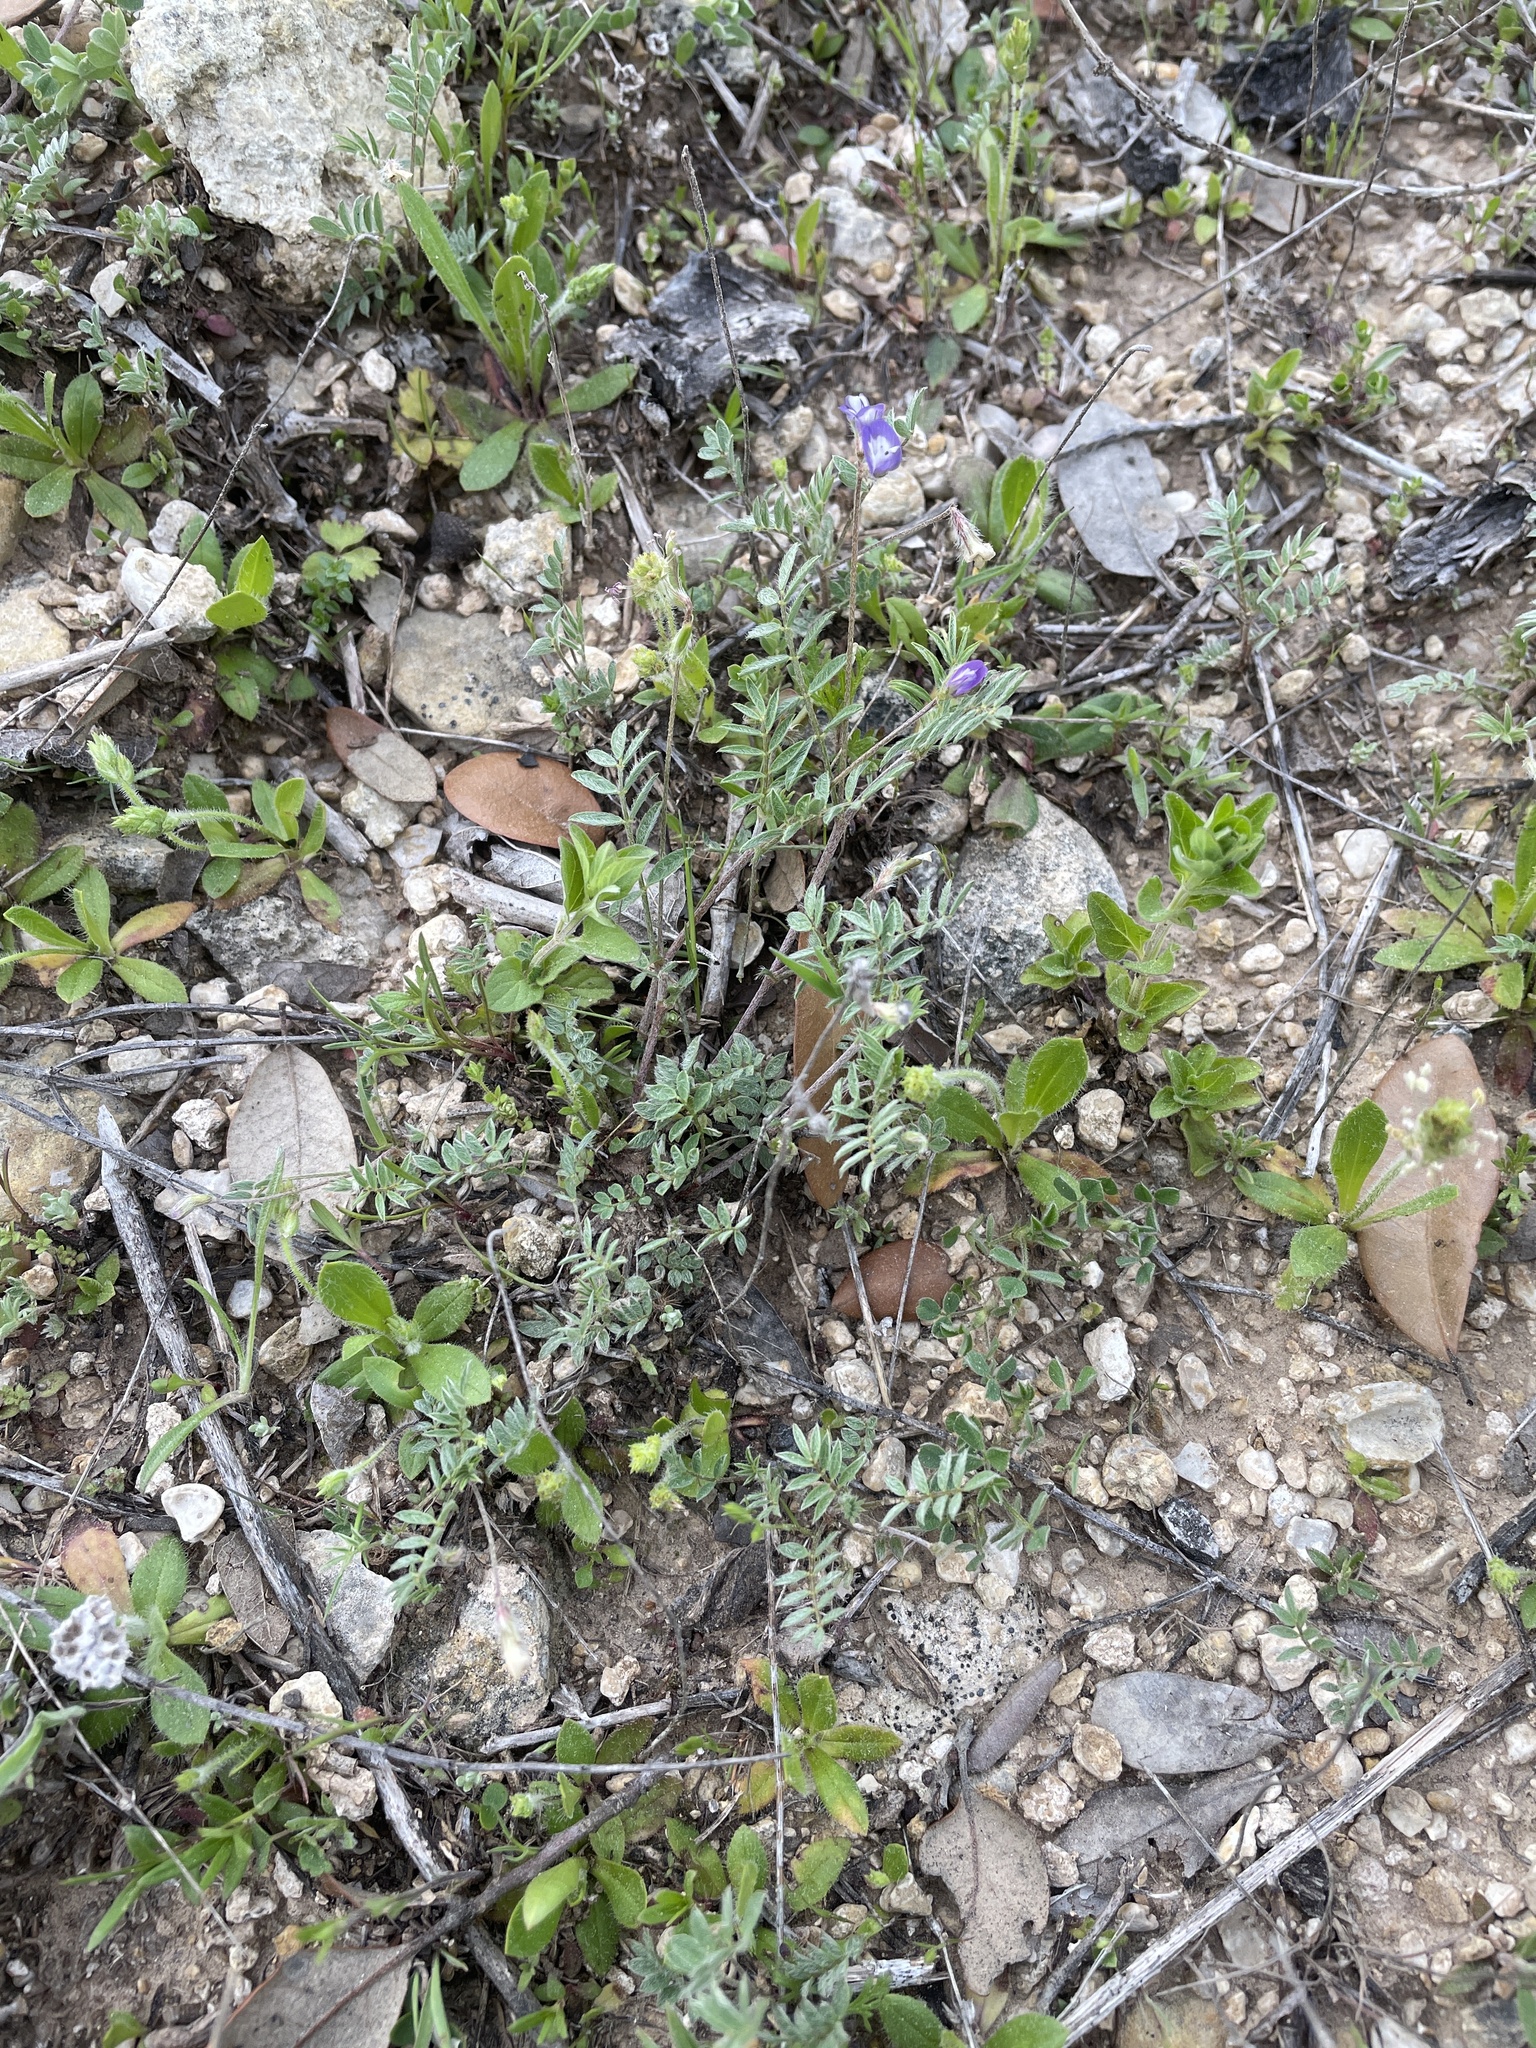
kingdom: Plantae
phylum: Tracheophyta
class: Magnoliopsida
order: Fabales
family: Fabaceae
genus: Astragalus
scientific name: Astragalus nuttallianus
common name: Smallflowered milkvetch
